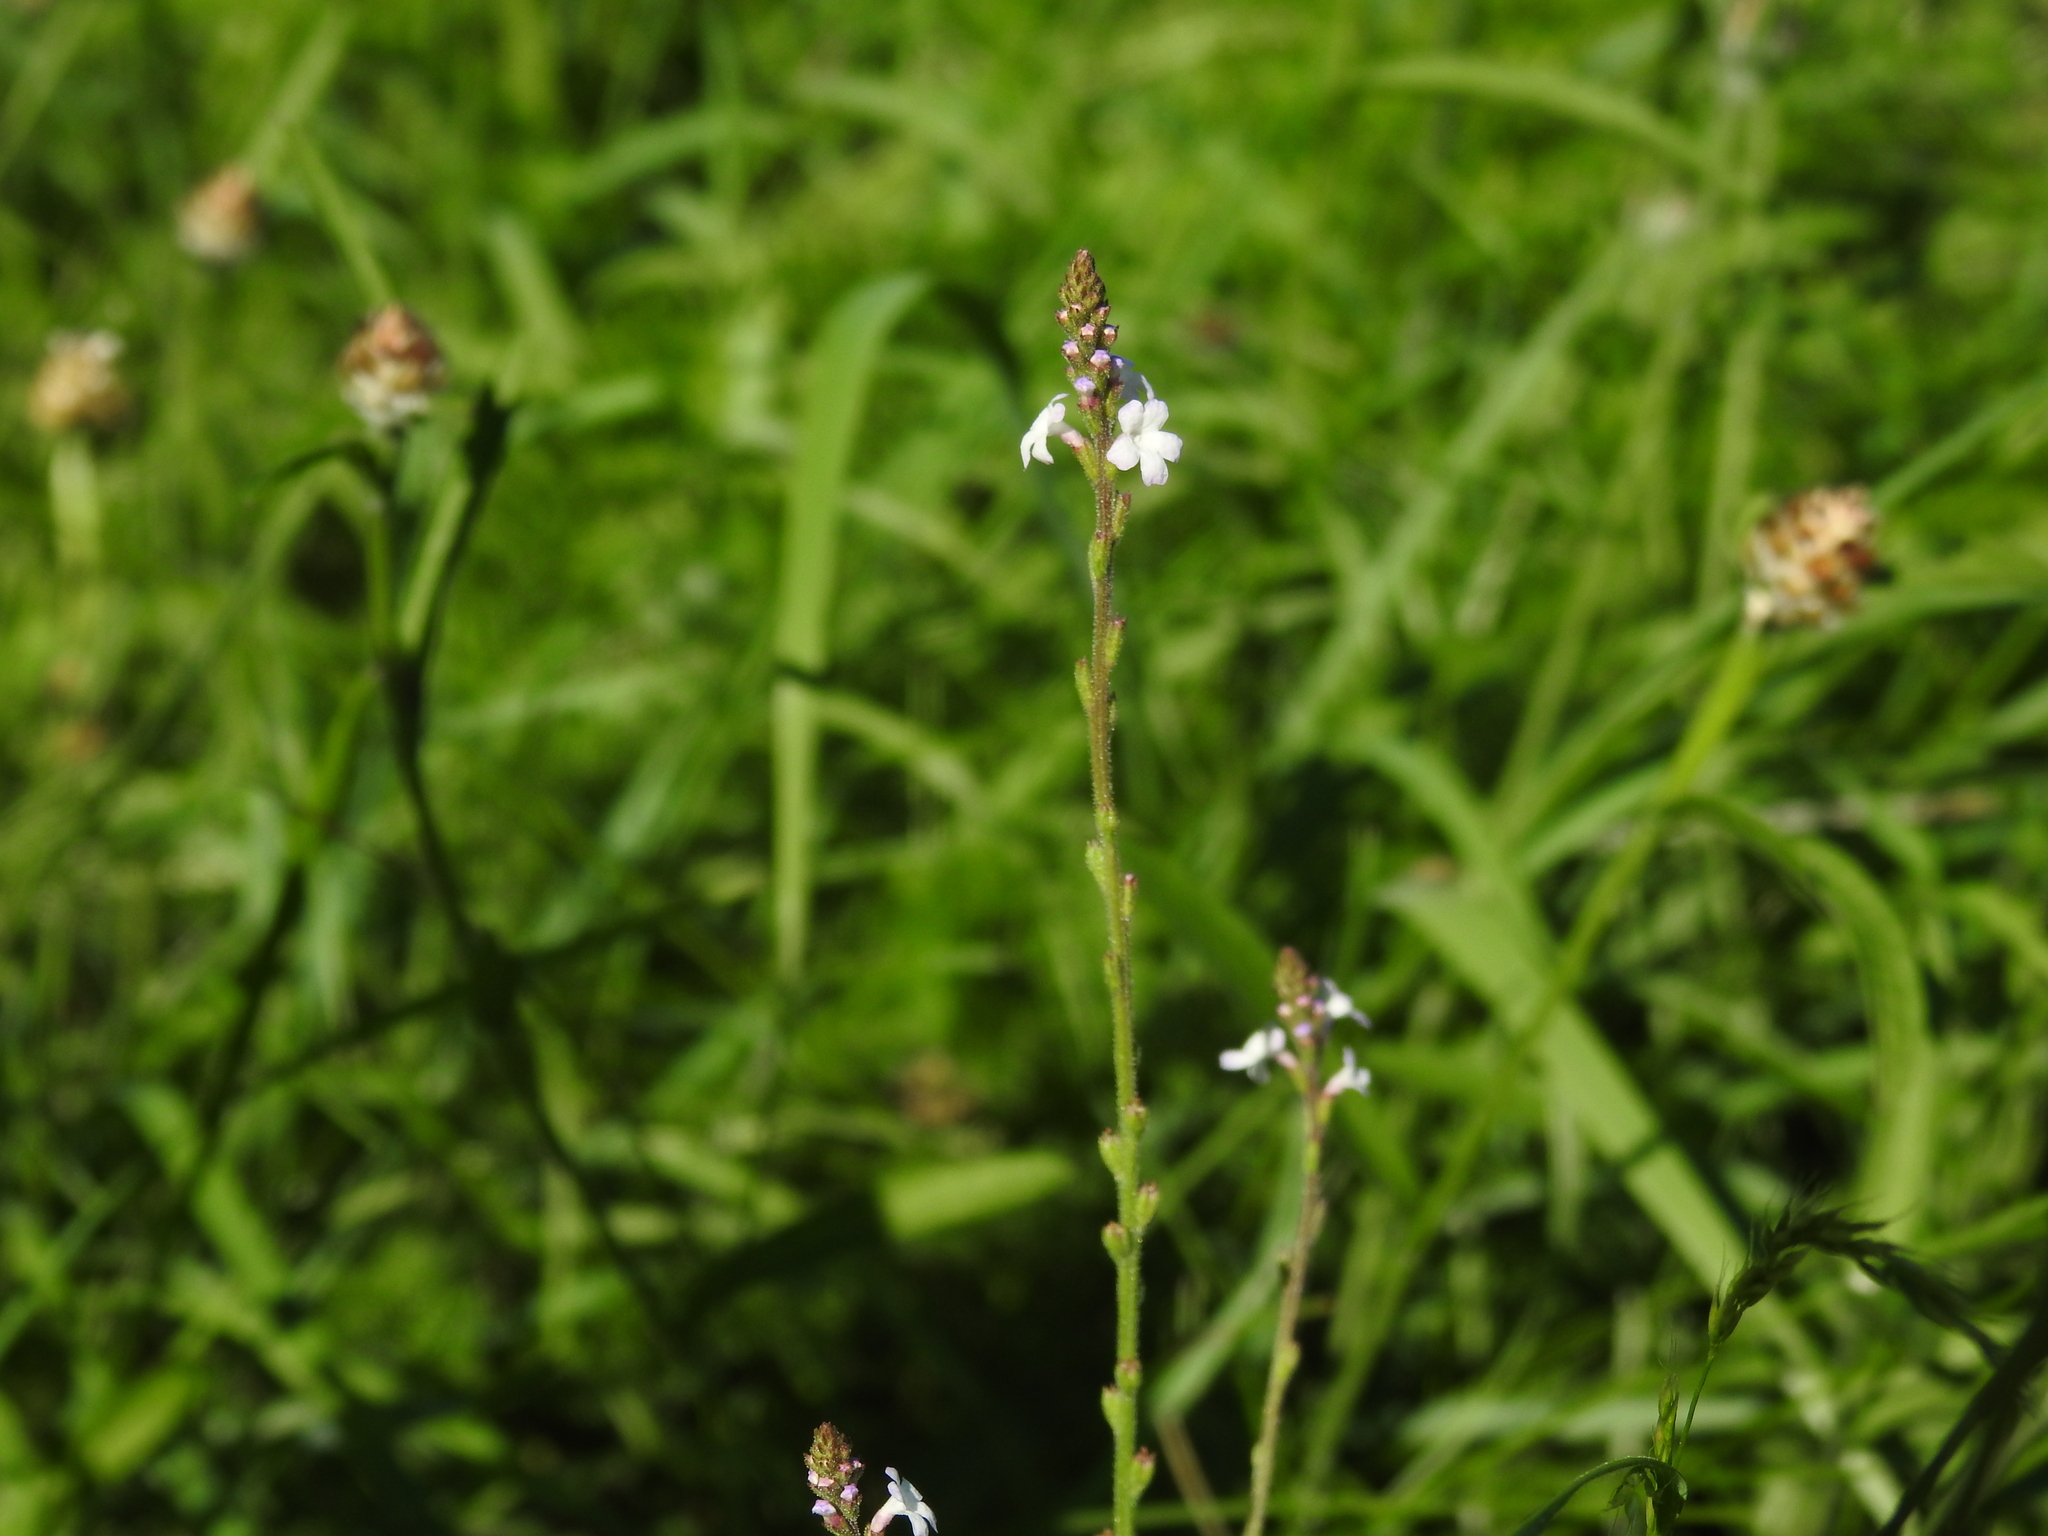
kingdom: Plantae
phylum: Tracheophyta
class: Magnoliopsida
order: Lamiales
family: Verbenaceae
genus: Verbena
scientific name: Verbena officinalis
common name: Vervain
